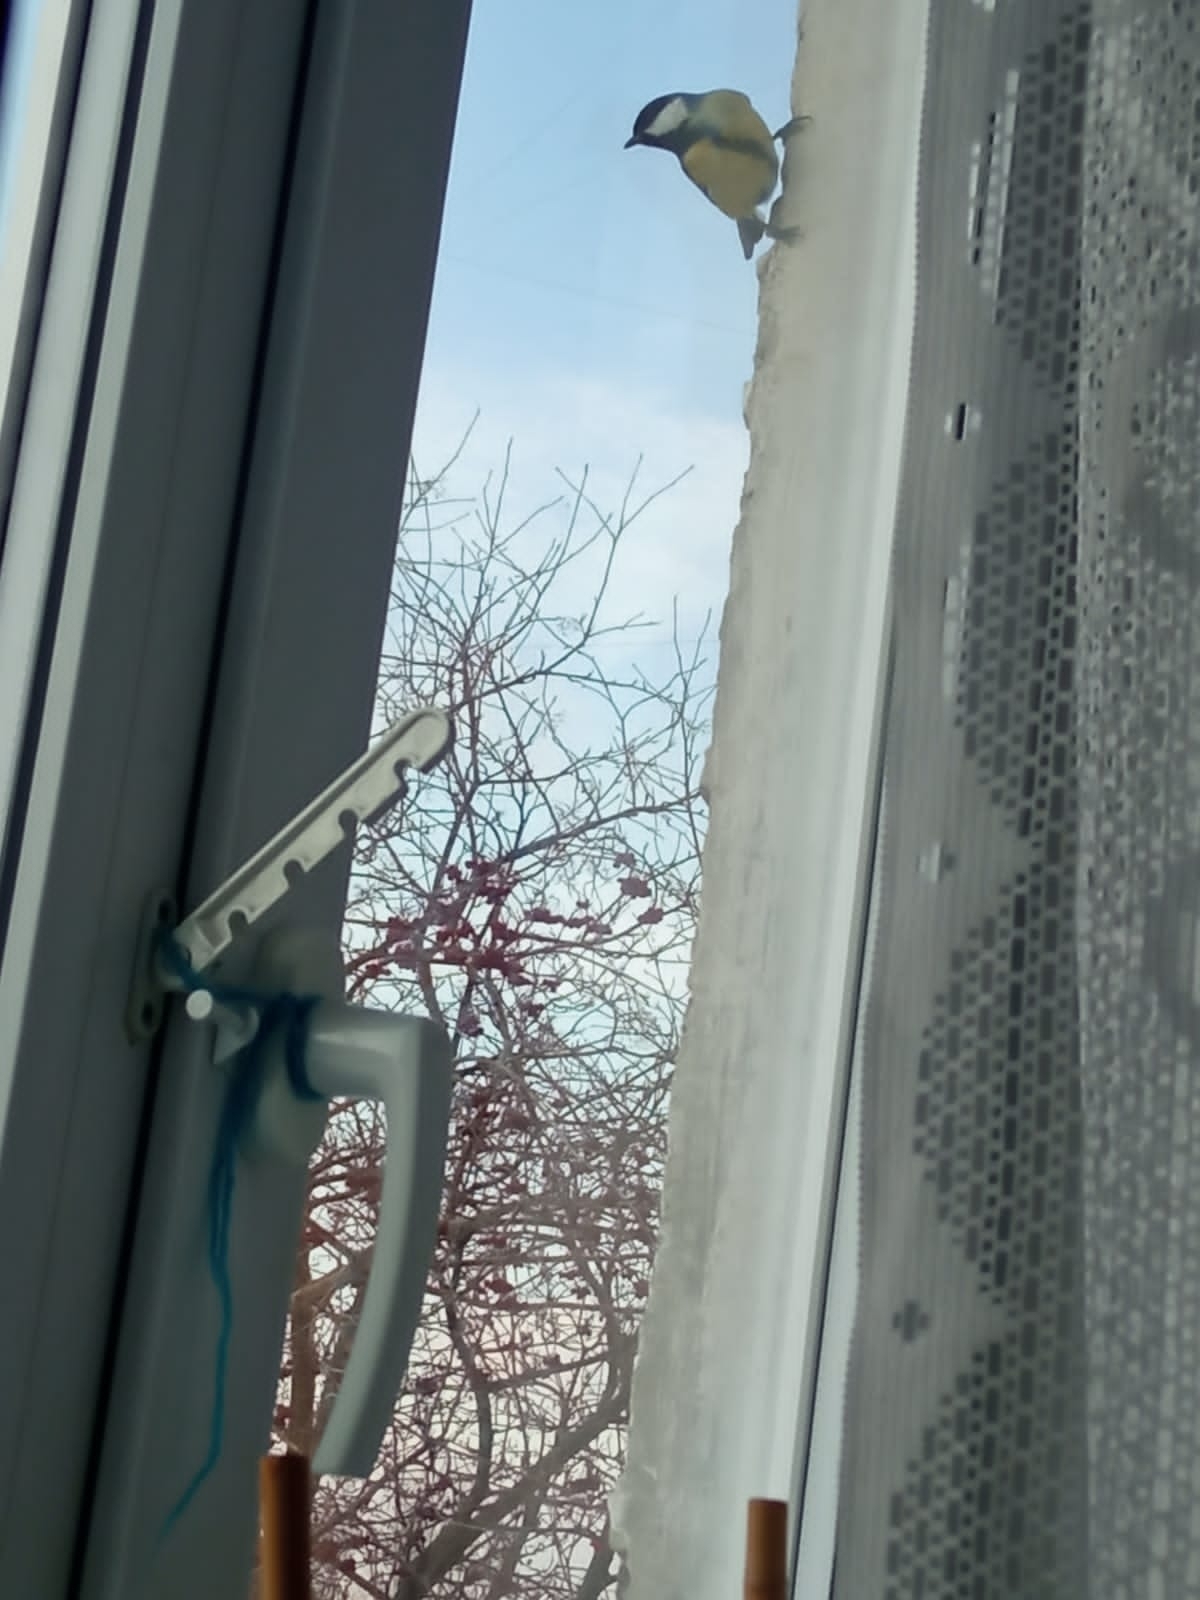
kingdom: Animalia
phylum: Chordata
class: Aves
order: Passeriformes
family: Paridae
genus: Parus
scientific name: Parus major
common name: Great tit
